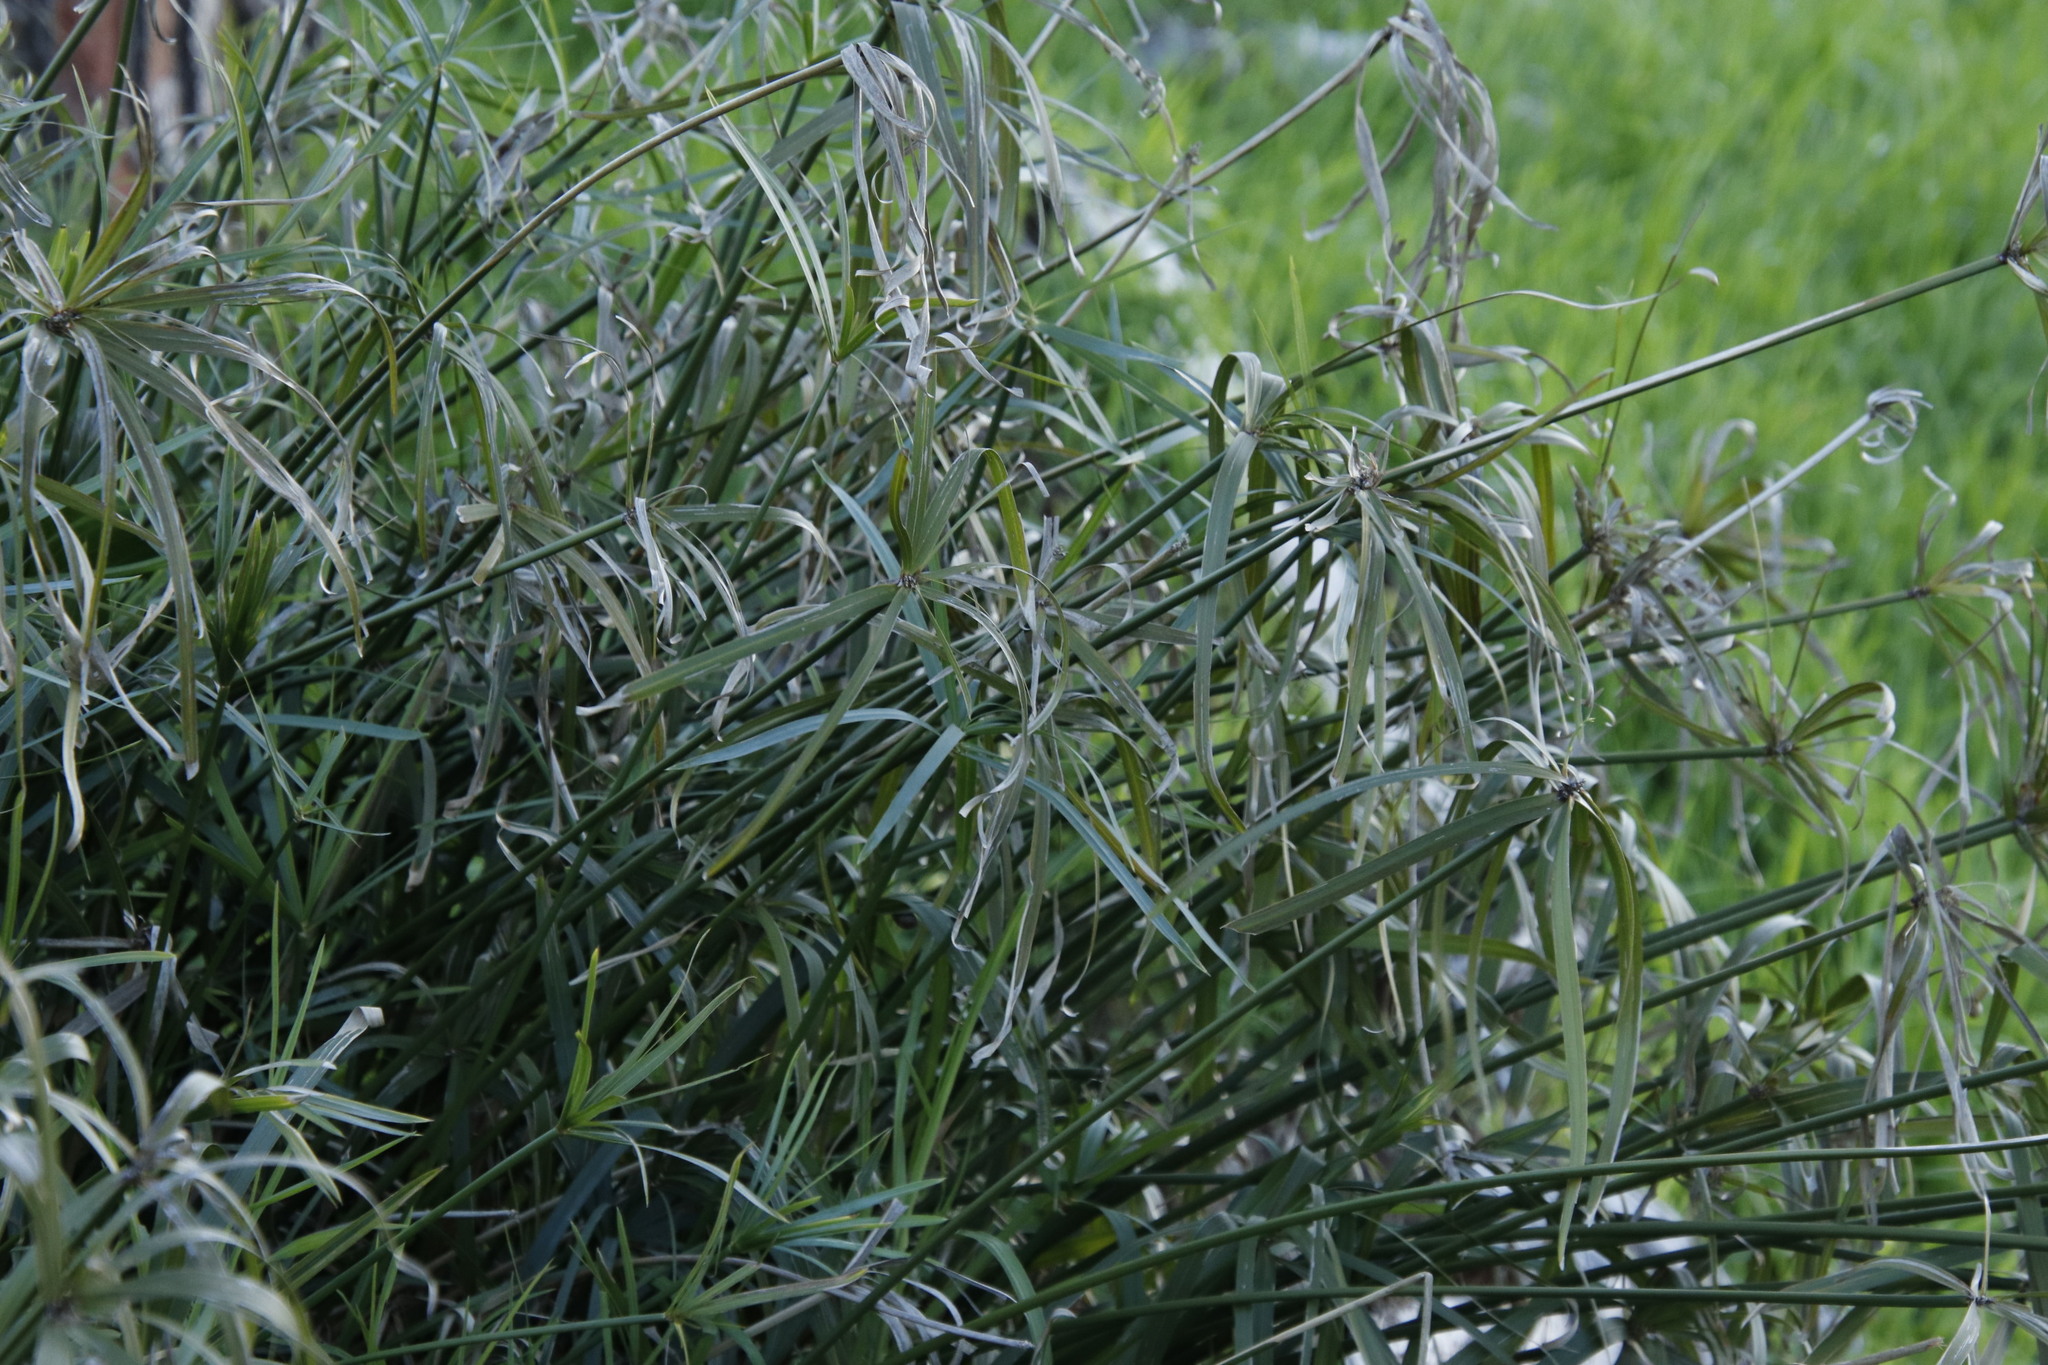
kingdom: Plantae
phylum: Tracheophyta
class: Liliopsida
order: Poales
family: Cyperaceae
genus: Cyperus
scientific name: Cyperus textilis
